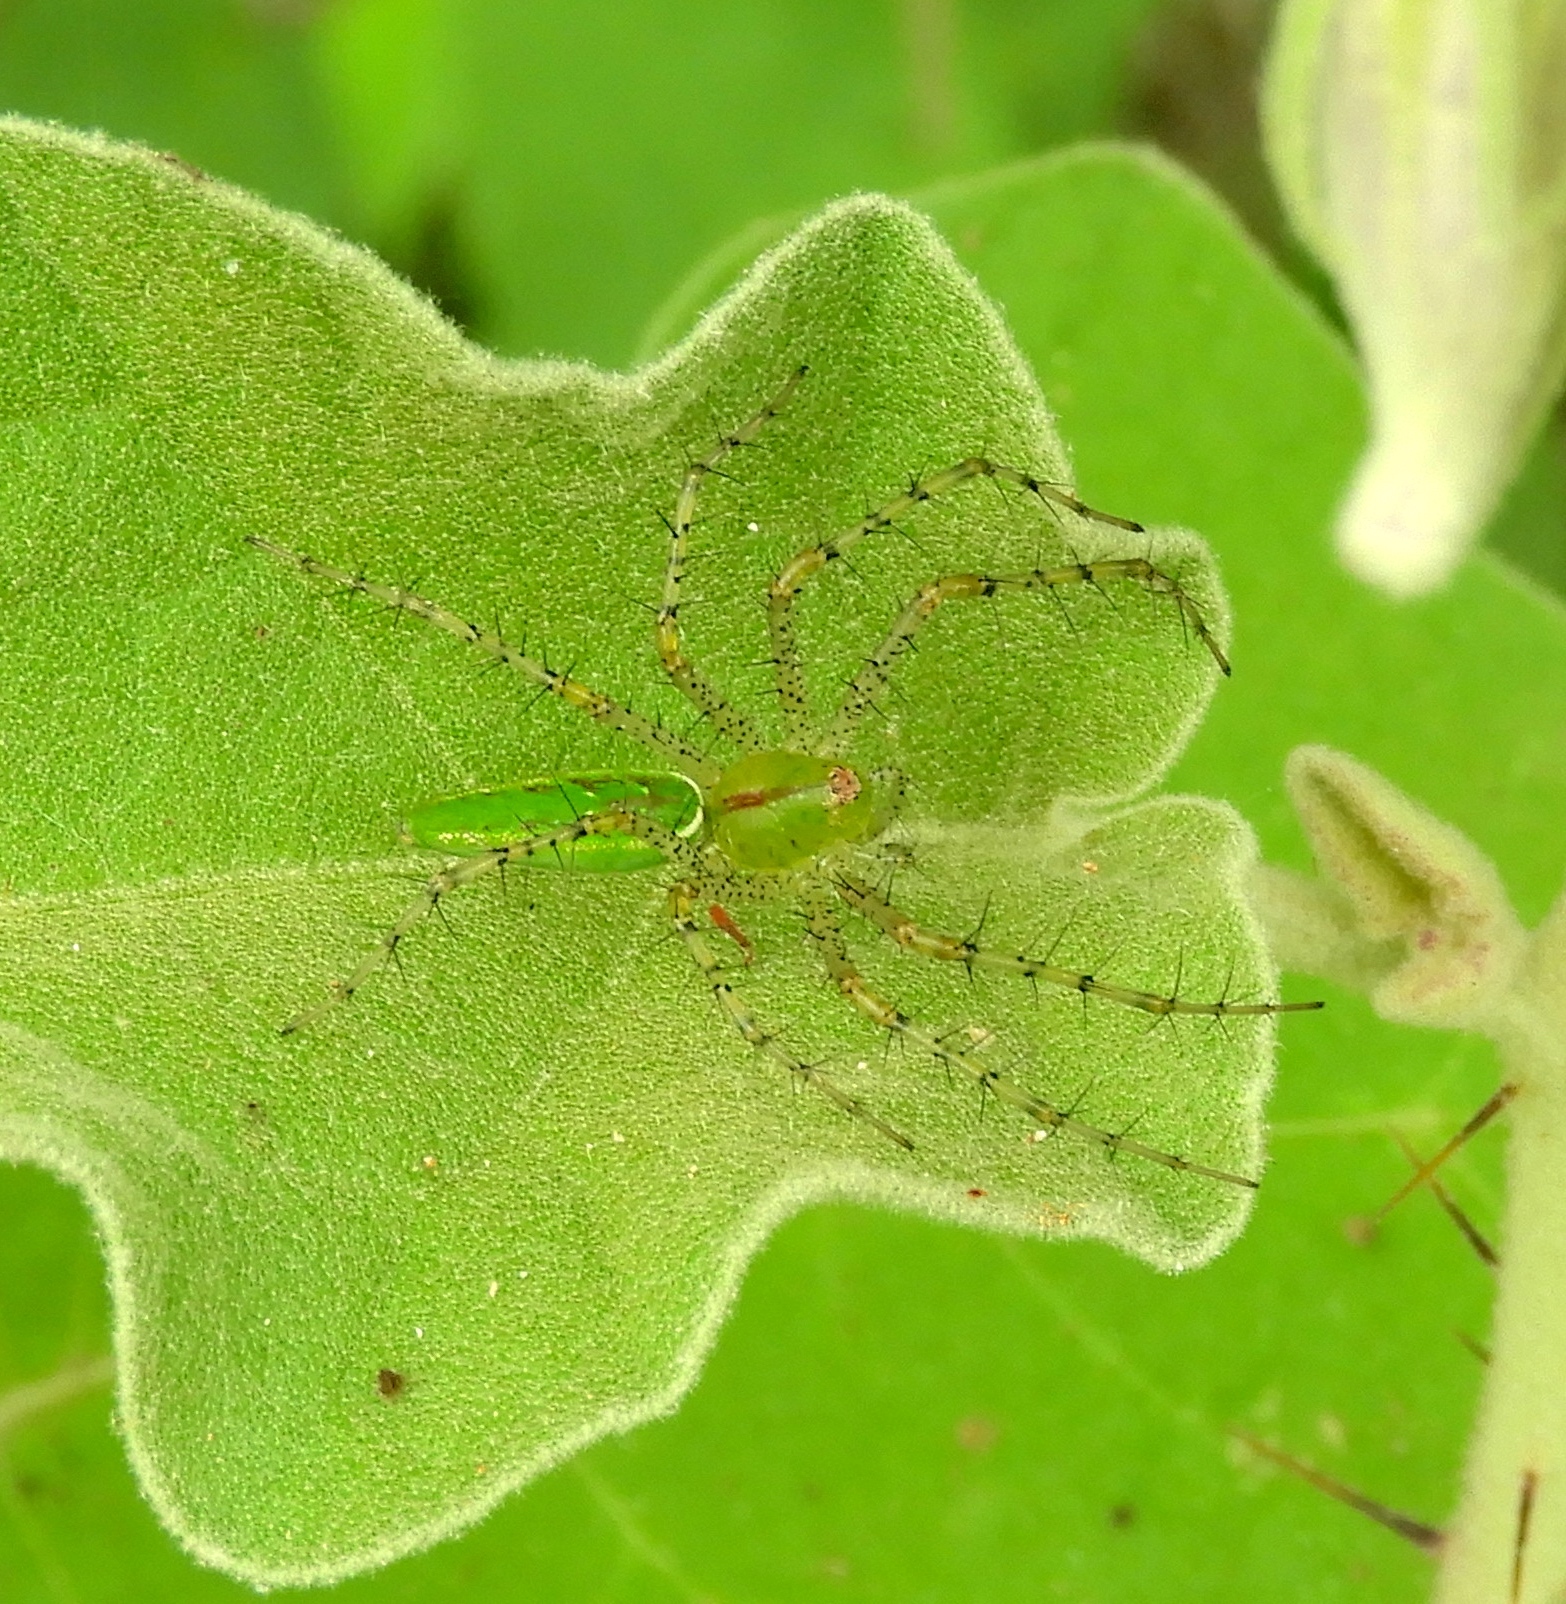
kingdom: Animalia
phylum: Arthropoda
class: Arachnida
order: Araneae
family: Oxyopidae
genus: Peucetia
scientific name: Peucetia
